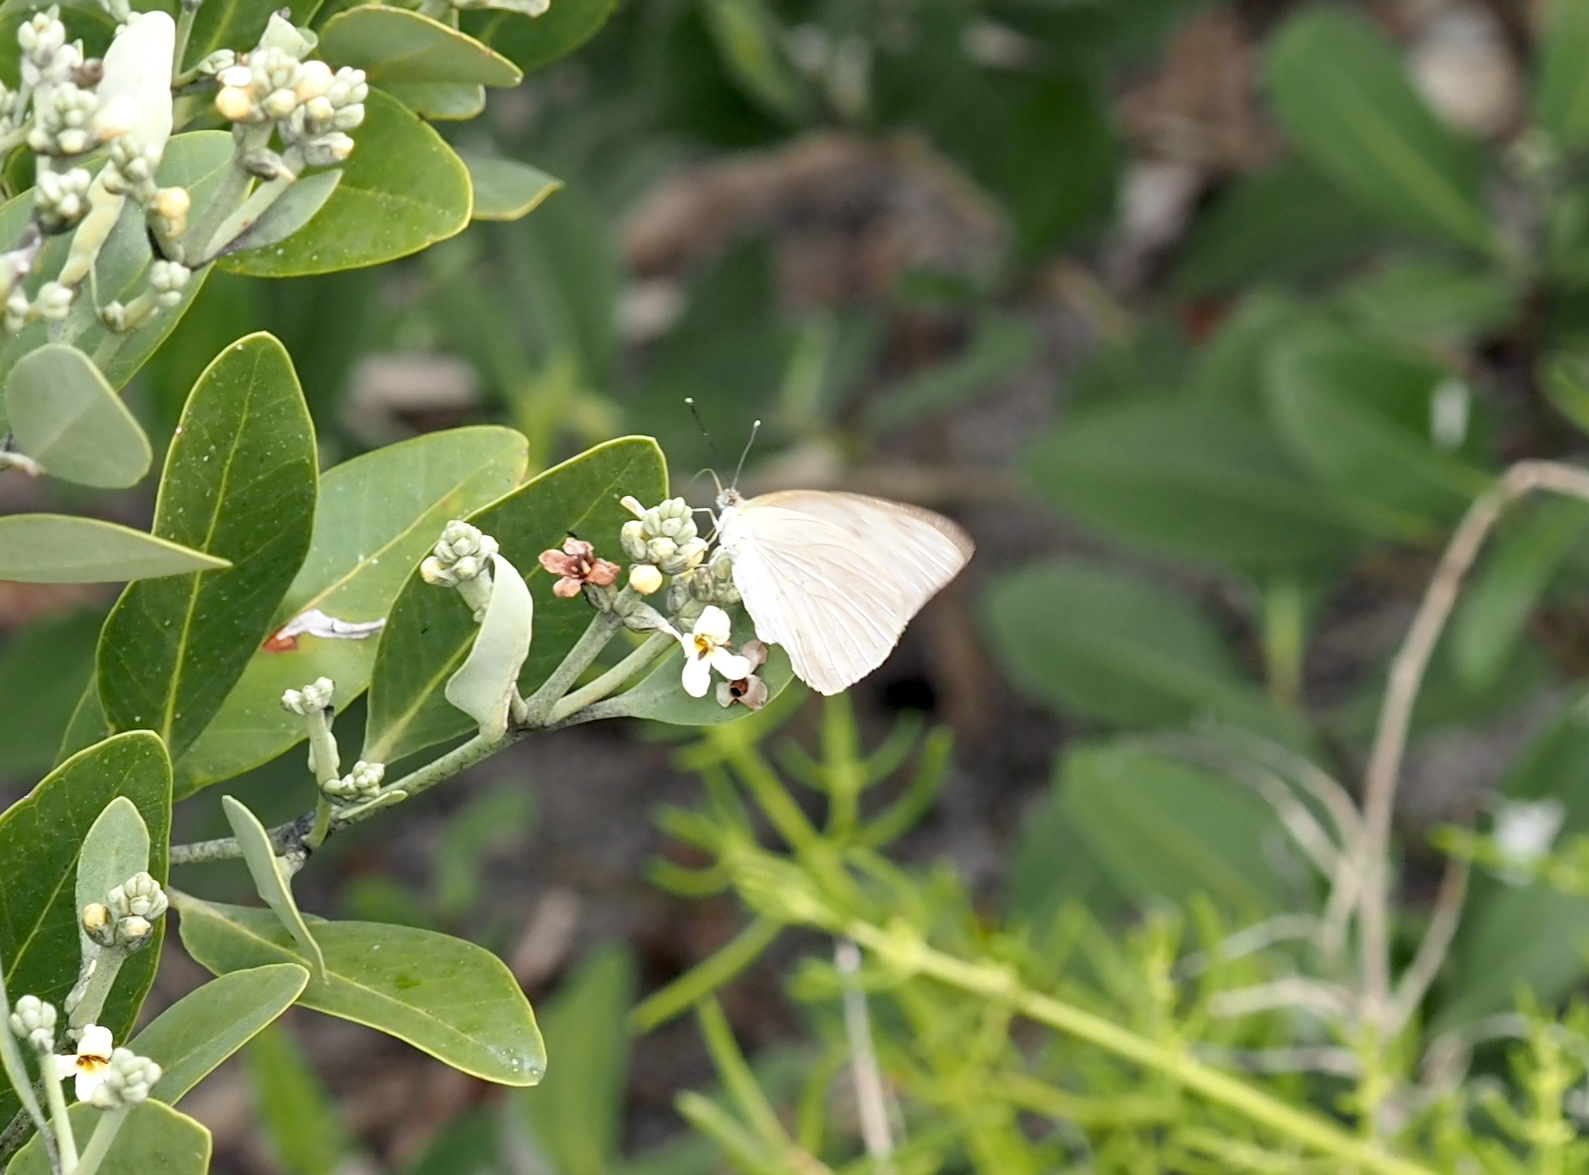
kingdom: Animalia
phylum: Arthropoda
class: Insecta
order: Lepidoptera
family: Pieridae
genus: Ascia
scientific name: Ascia monuste
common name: Great southern white
